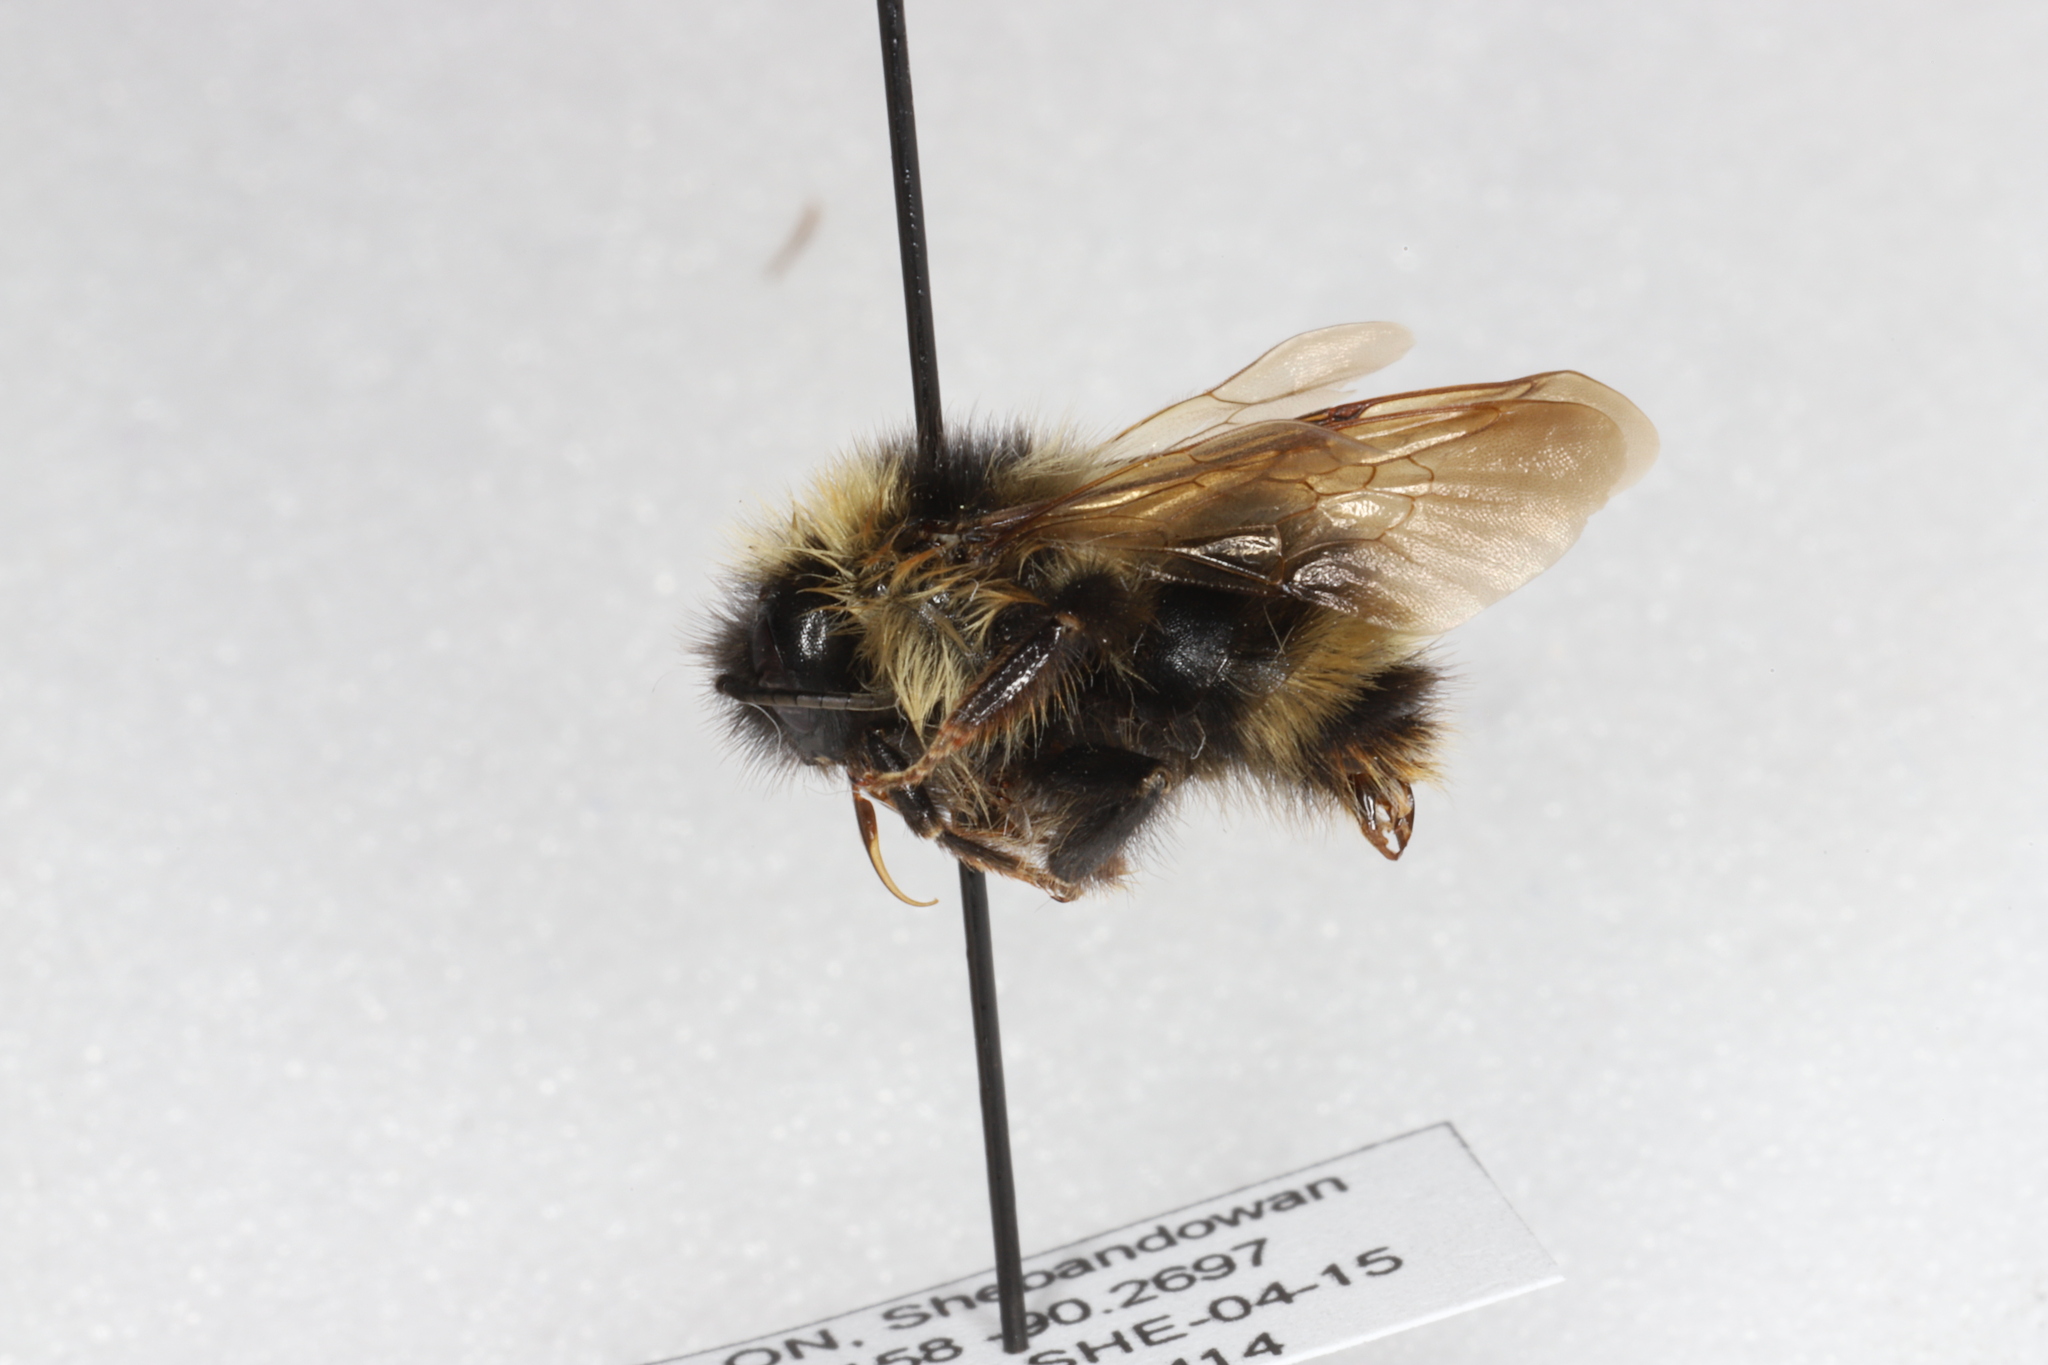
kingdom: Animalia
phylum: Arthropoda
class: Insecta
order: Hymenoptera
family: Apidae
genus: Bombus
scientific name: Bombus flavidus
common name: Fernald cuckoo bumble bee
